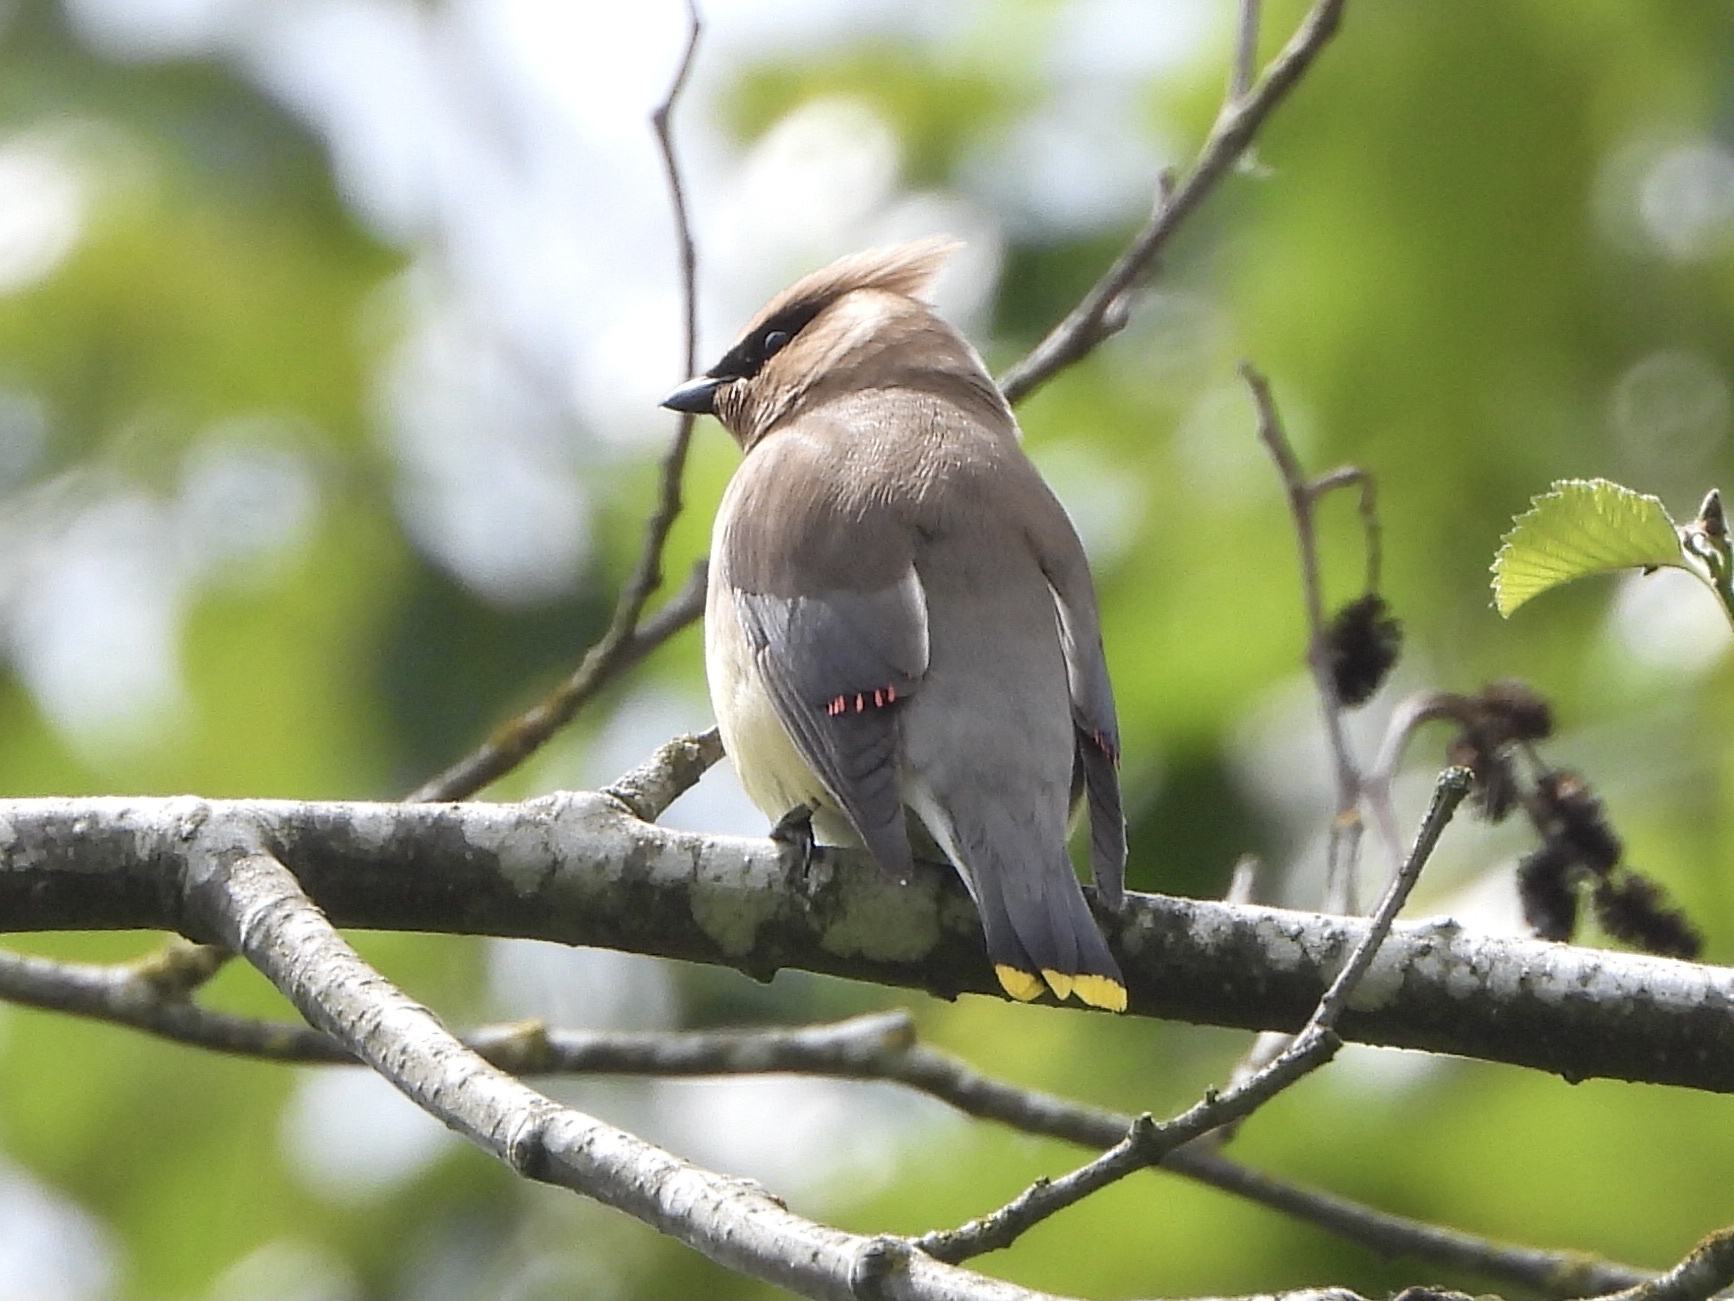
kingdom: Animalia
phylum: Chordata
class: Aves
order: Passeriformes
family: Bombycillidae
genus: Bombycilla
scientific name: Bombycilla cedrorum
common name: Cedar waxwing
